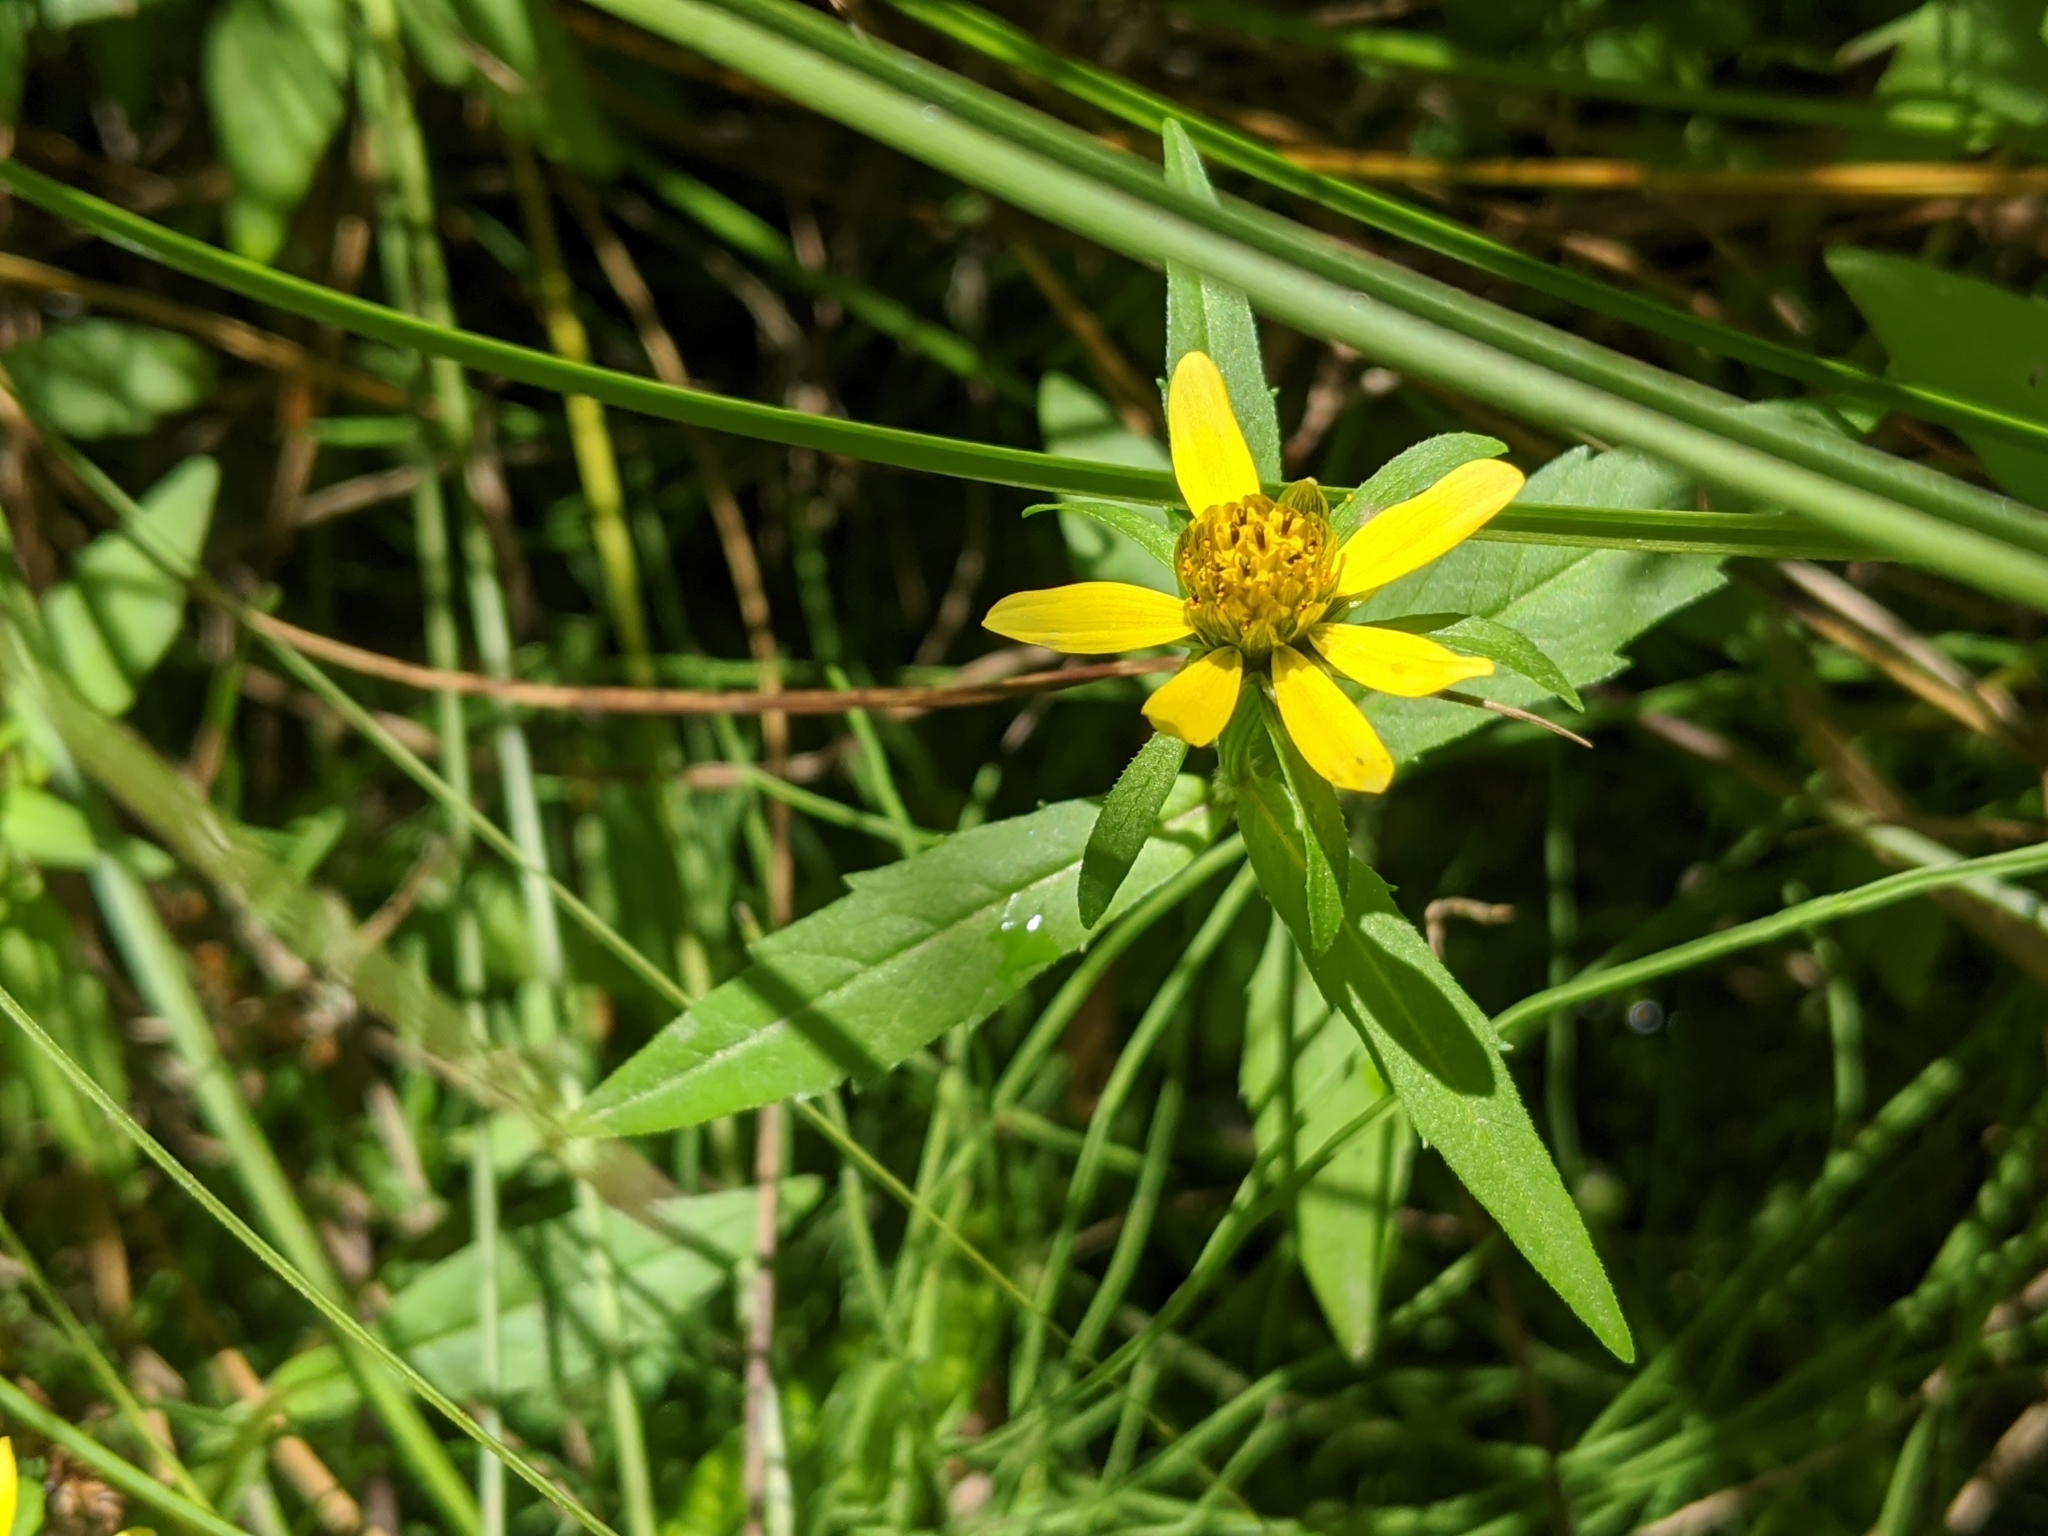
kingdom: Plantae
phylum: Tracheophyta
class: Magnoliopsida
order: Asterales
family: Asteraceae
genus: Bidens
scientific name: Bidens cernua
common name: Nodding bur-marigold
